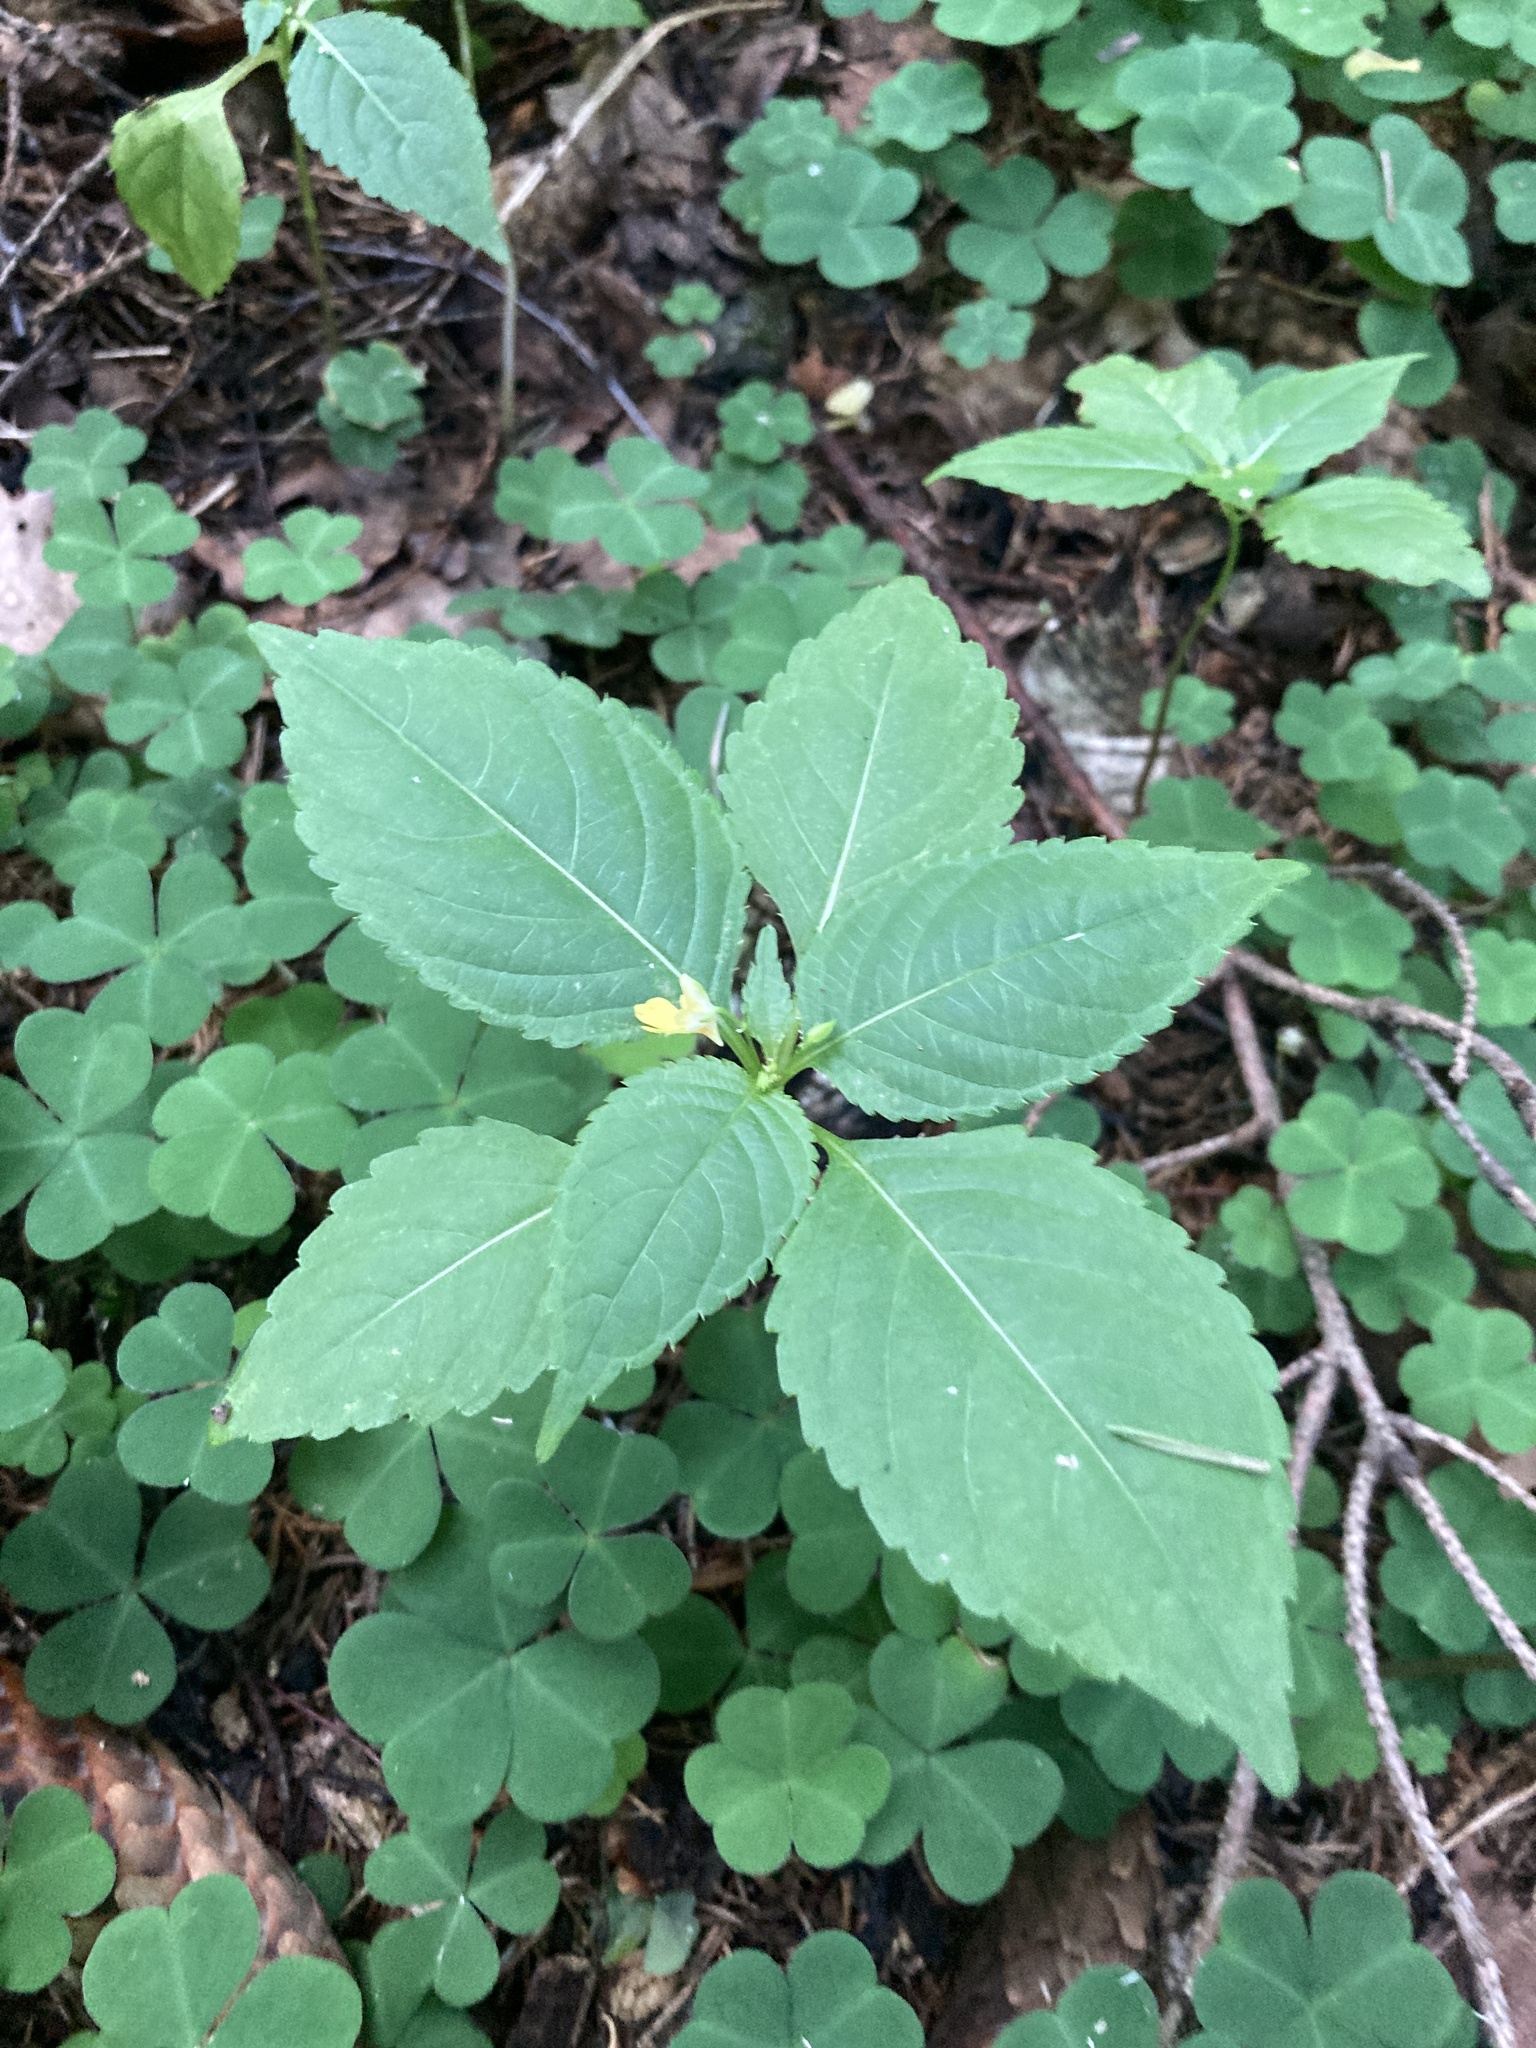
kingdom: Plantae
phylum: Tracheophyta
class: Magnoliopsida
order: Ericales
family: Balsaminaceae
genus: Impatiens
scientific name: Impatiens parviflora
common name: Small balsam
